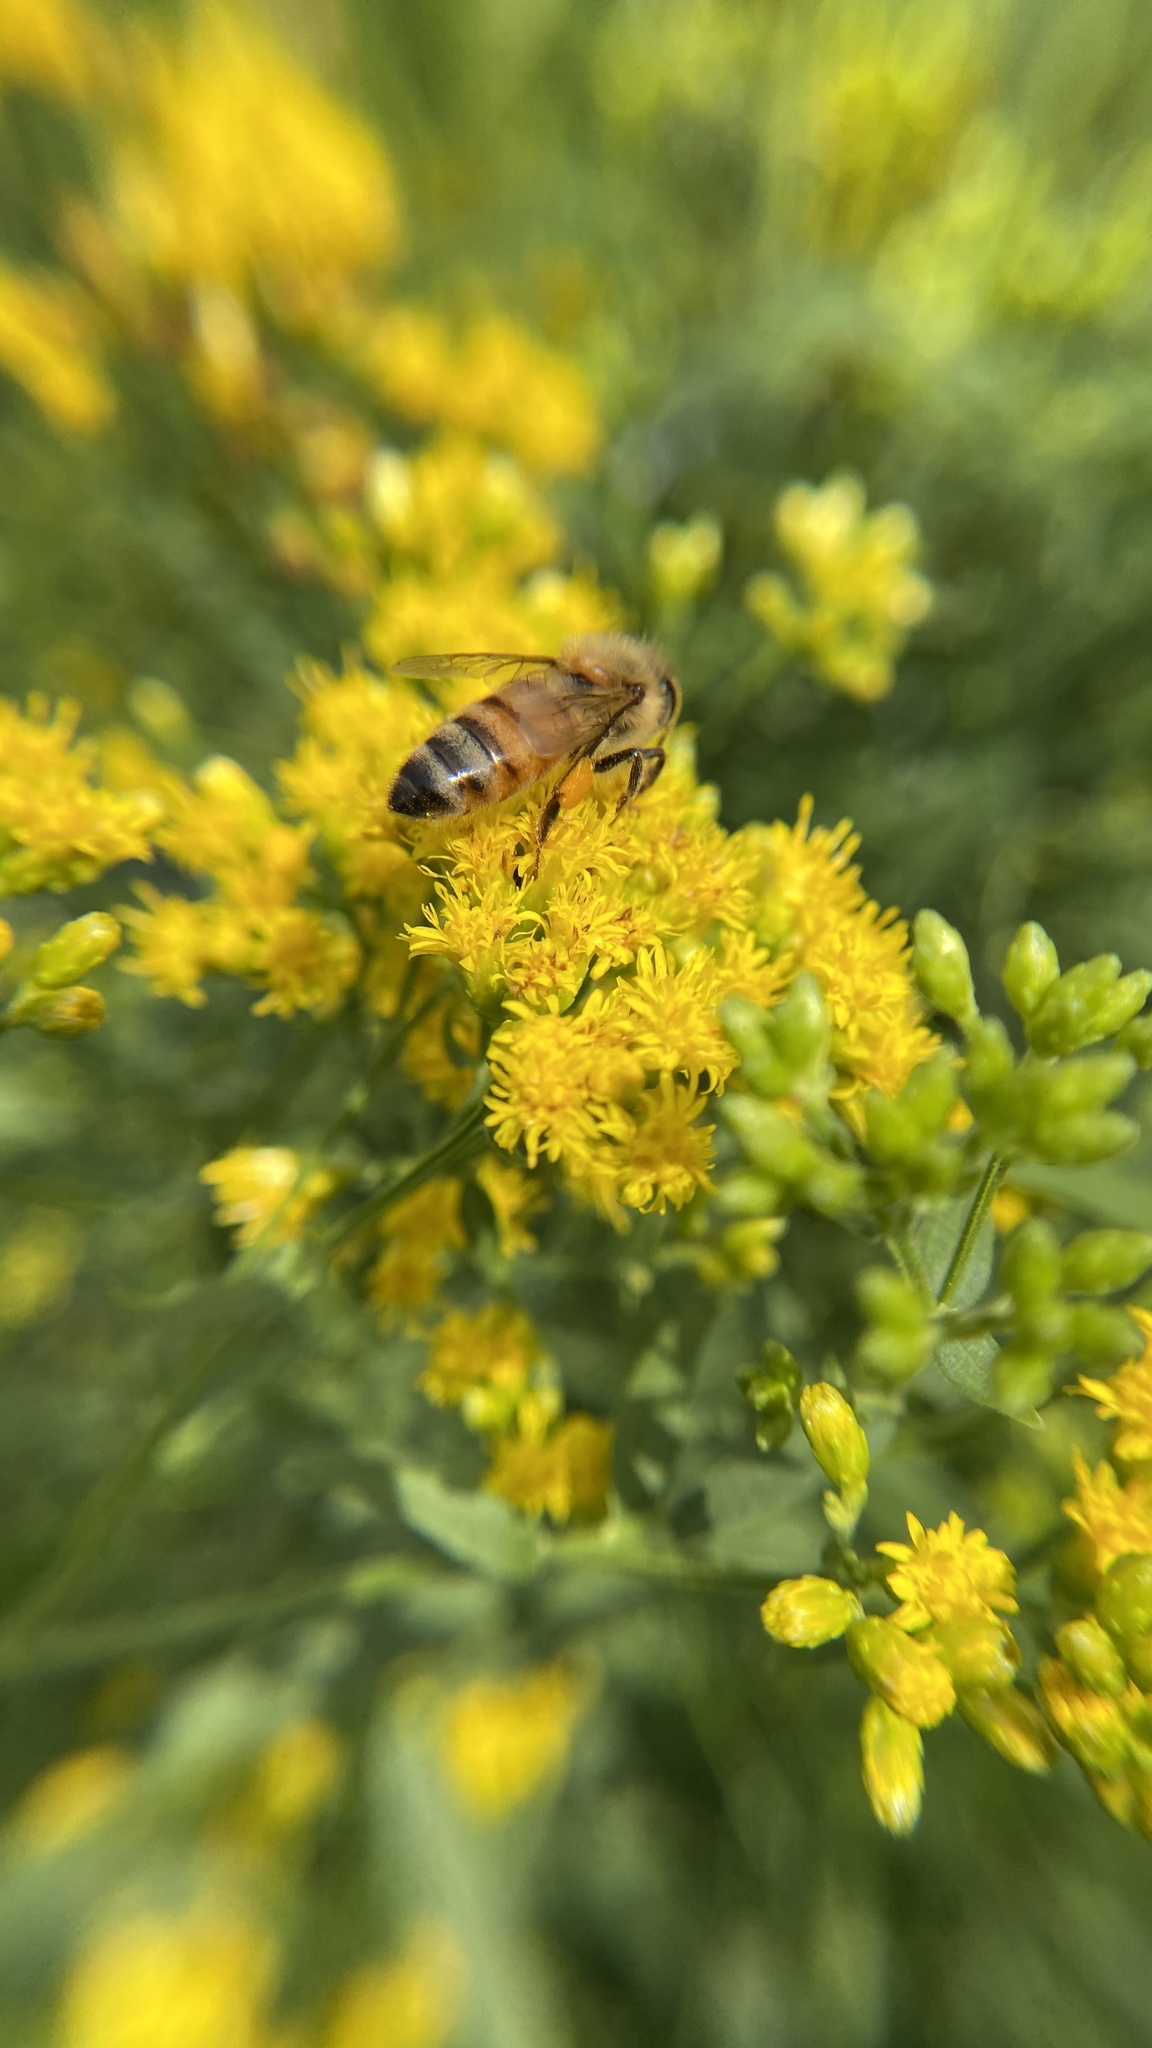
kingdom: Animalia
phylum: Arthropoda
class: Insecta
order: Hymenoptera
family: Apidae
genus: Apis
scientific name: Apis mellifera
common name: Honey bee
